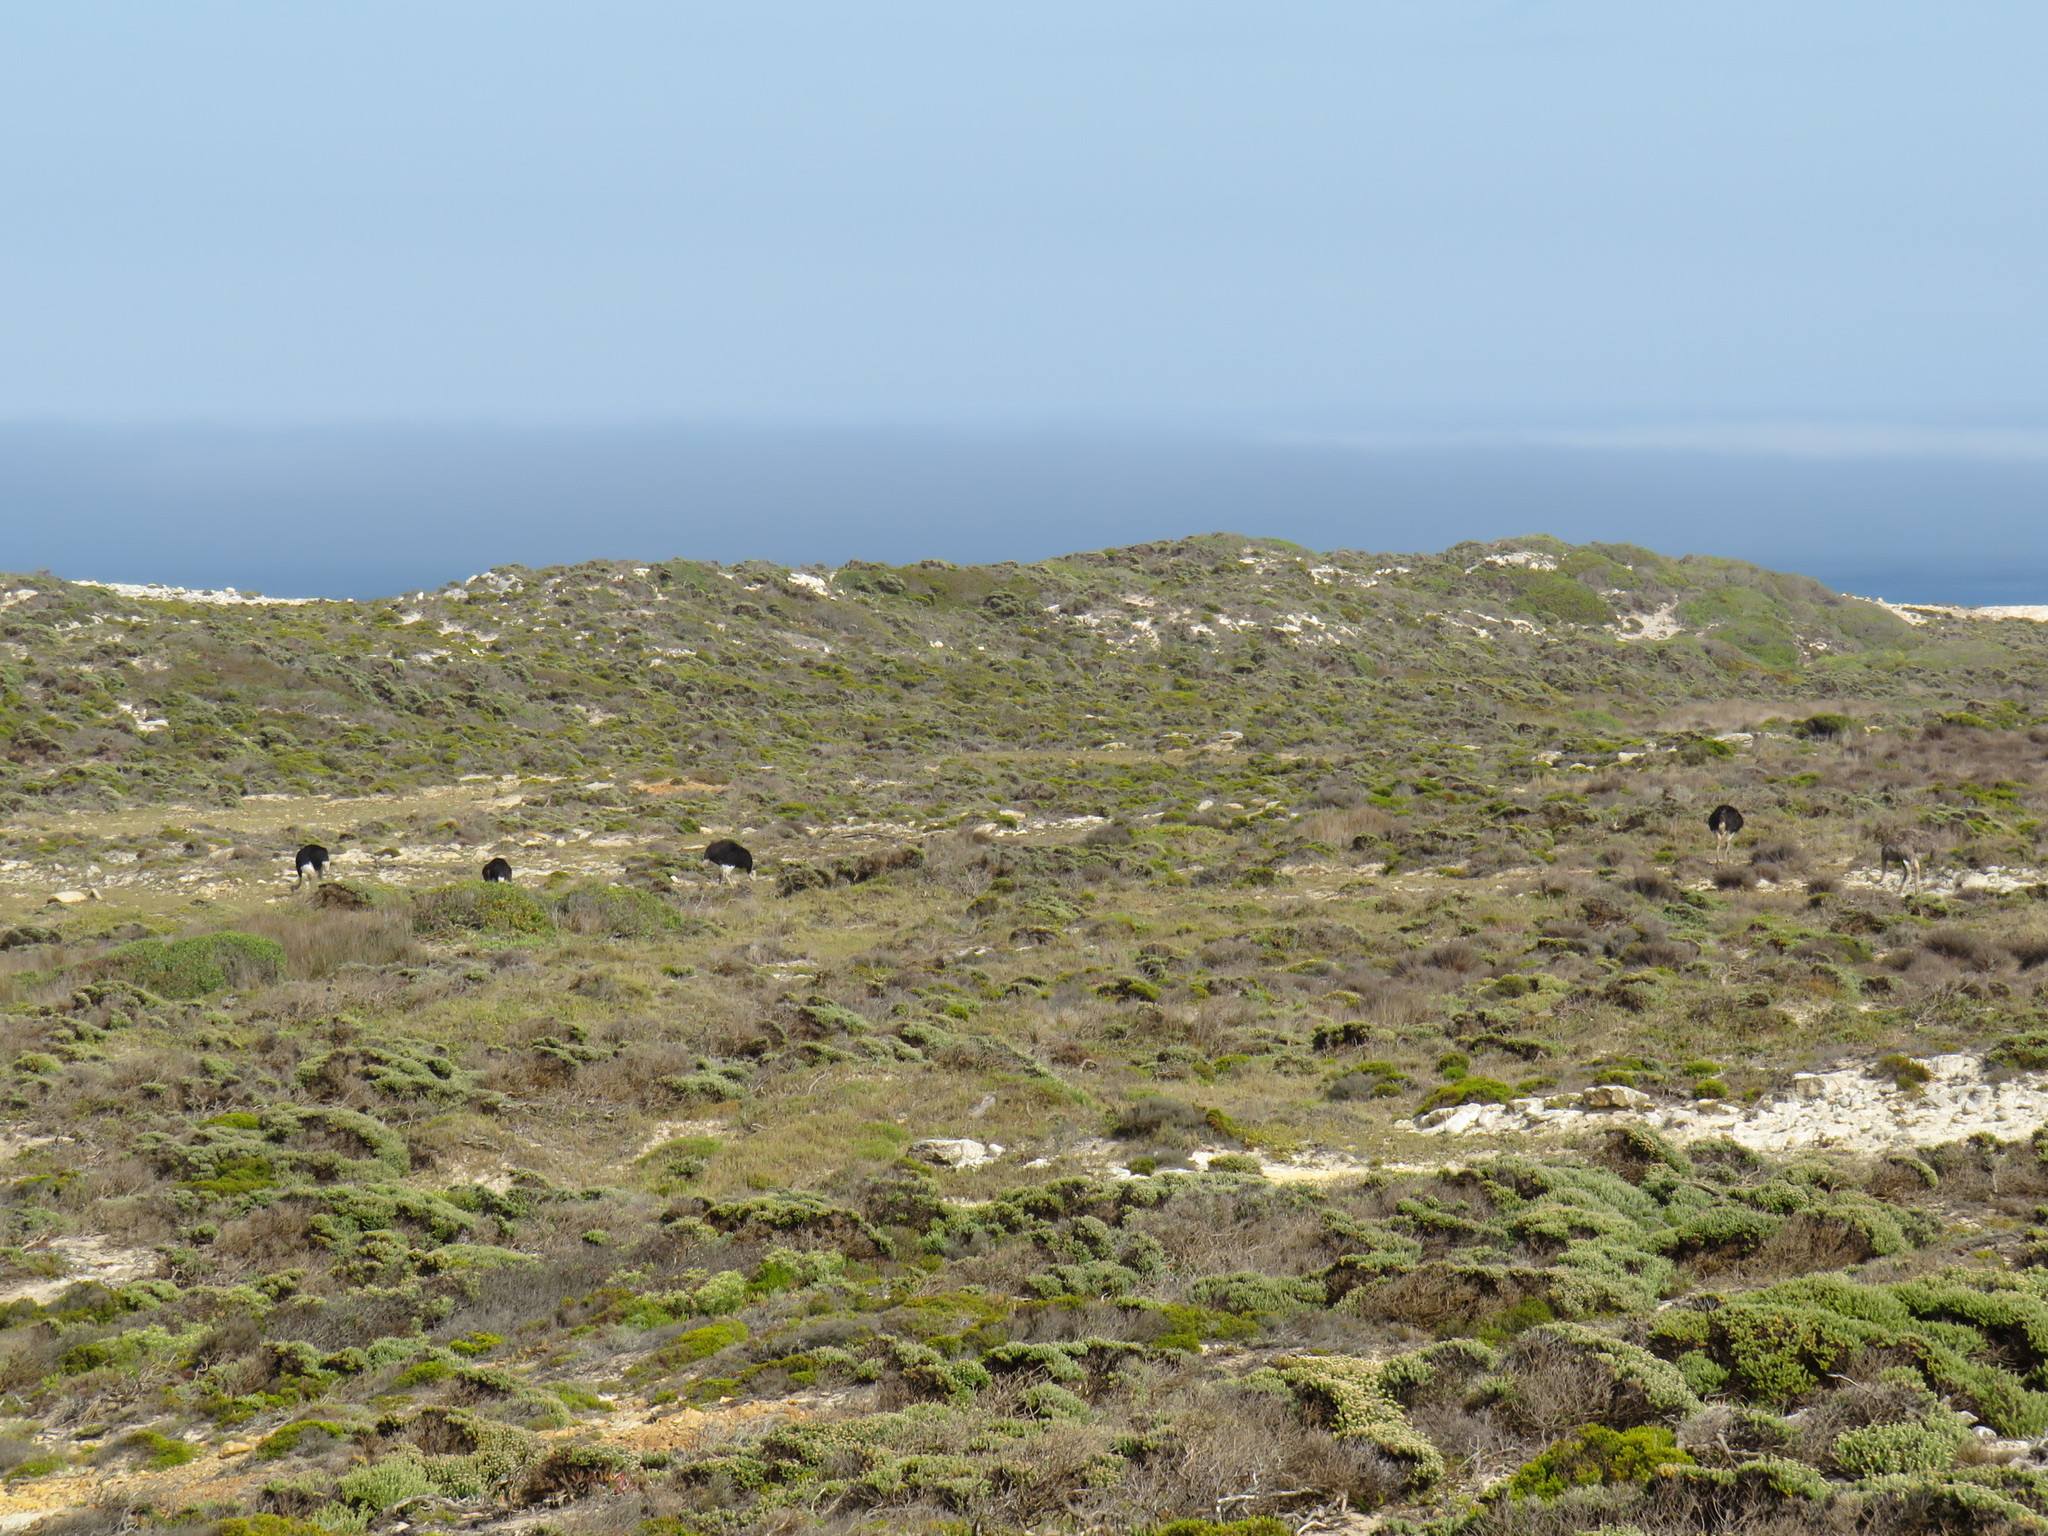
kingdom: Animalia
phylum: Chordata
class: Aves
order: Struthioniformes
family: Struthionidae
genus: Struthio
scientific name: Struthio camelus
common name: Common ostrich
